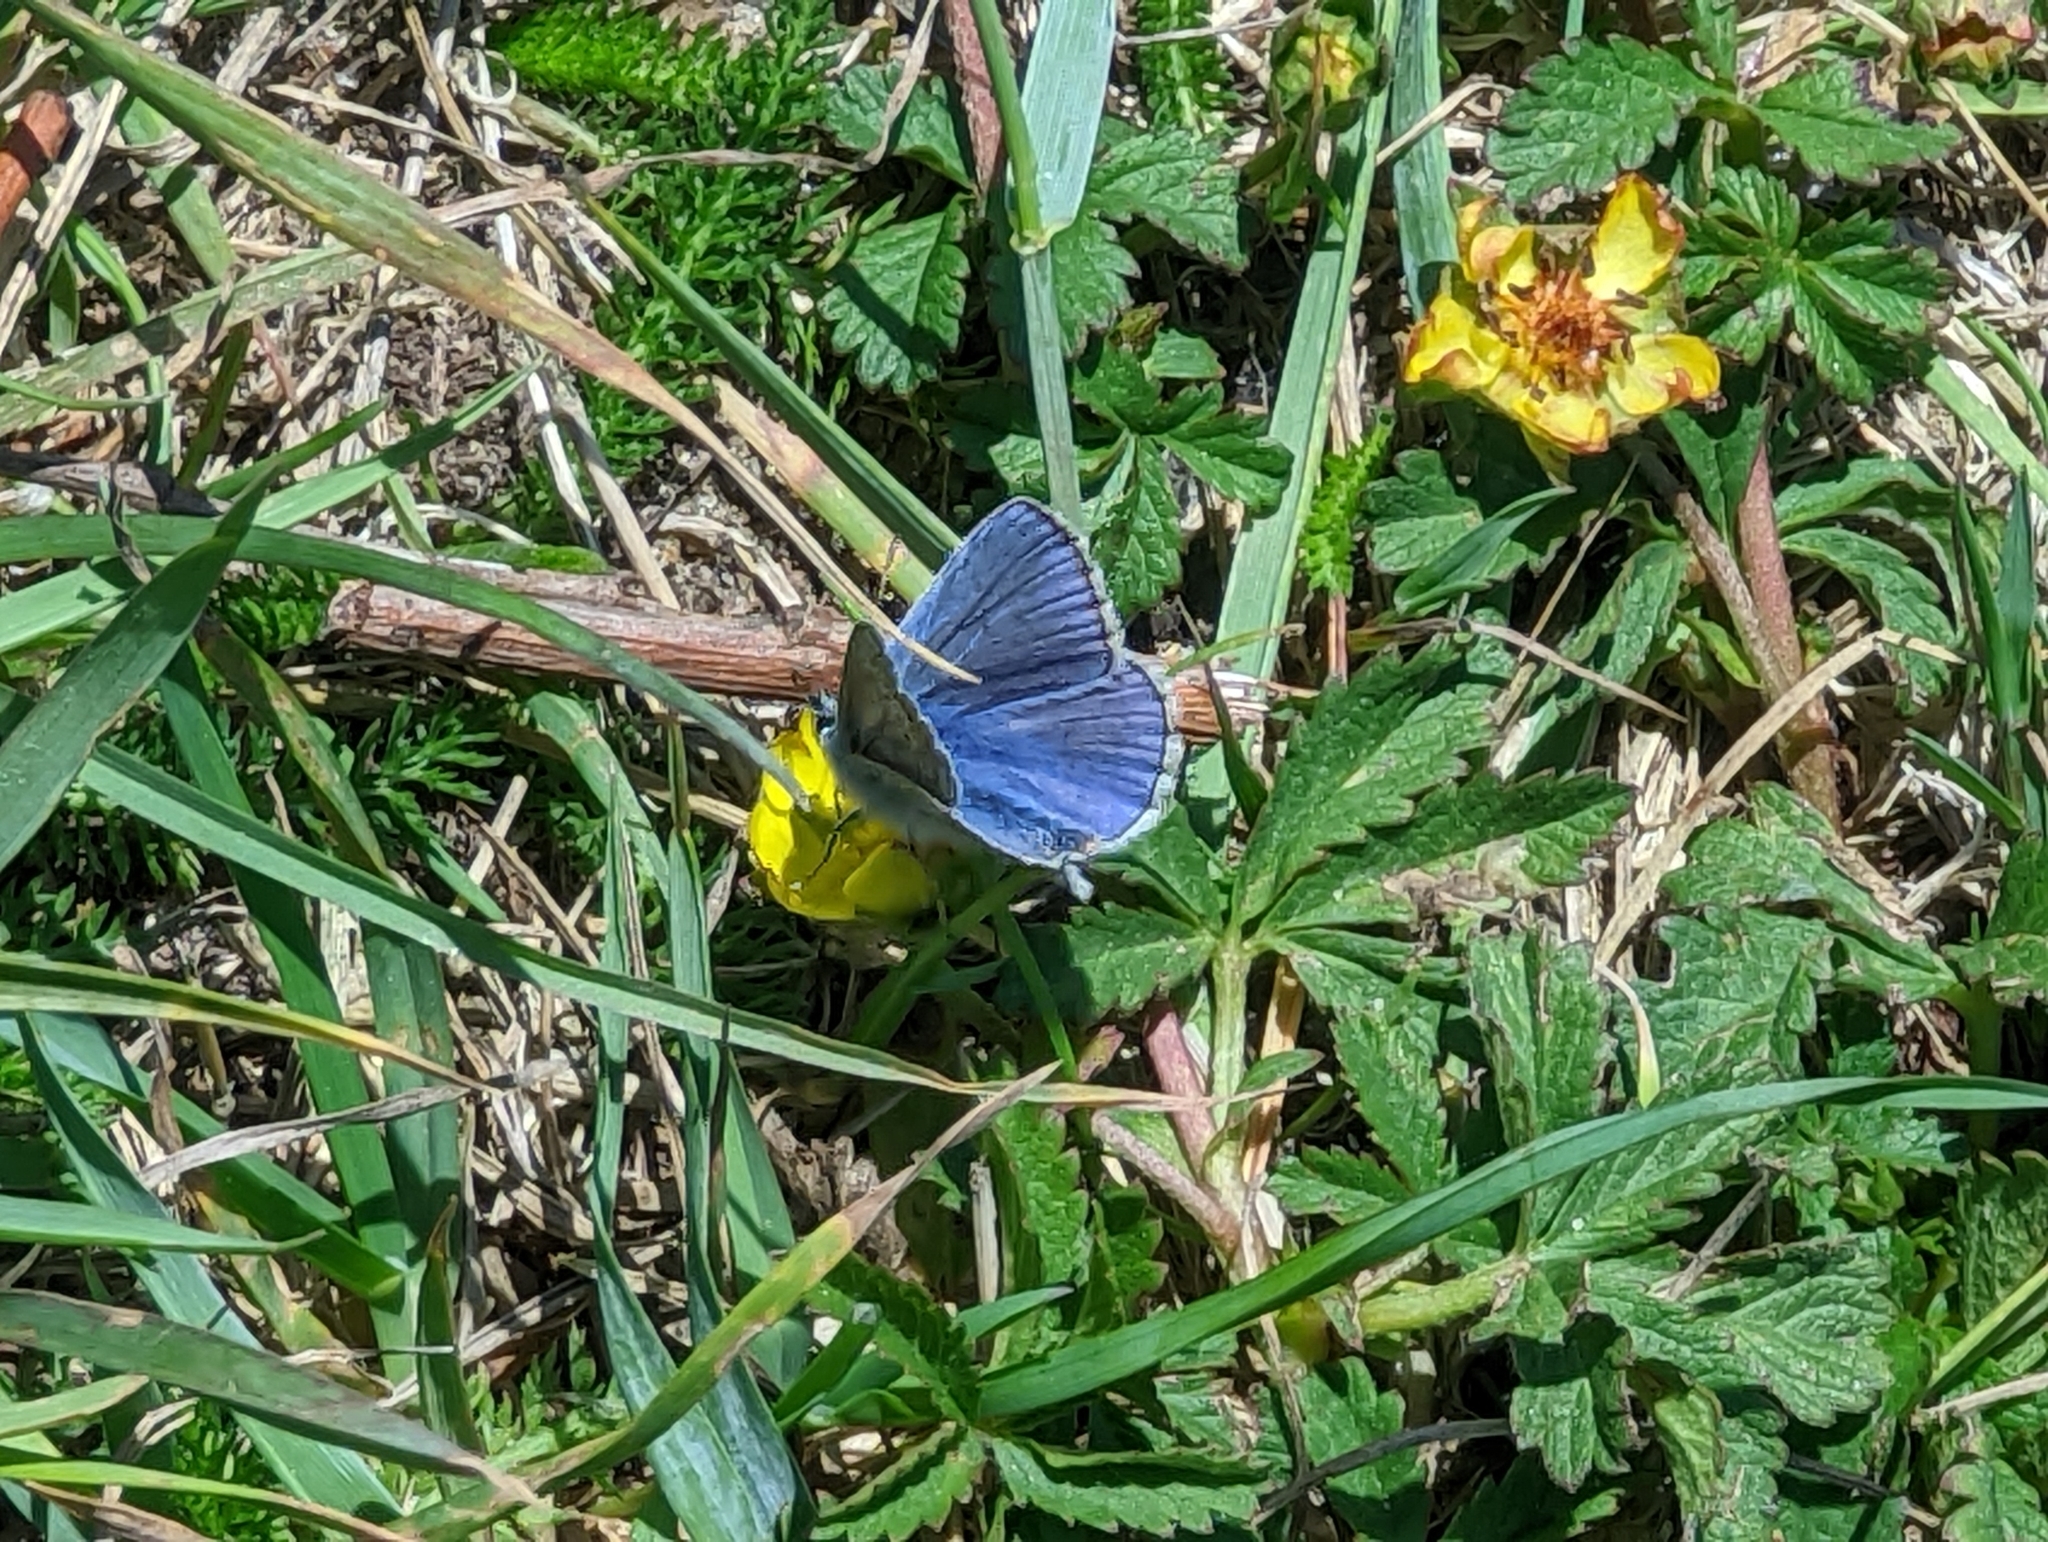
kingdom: Animalia
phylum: Arthropoda
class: Insecta
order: Lepidoptera
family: Lycaenidae
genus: Polyommatus
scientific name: Polyommatus icarus
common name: Common blue
